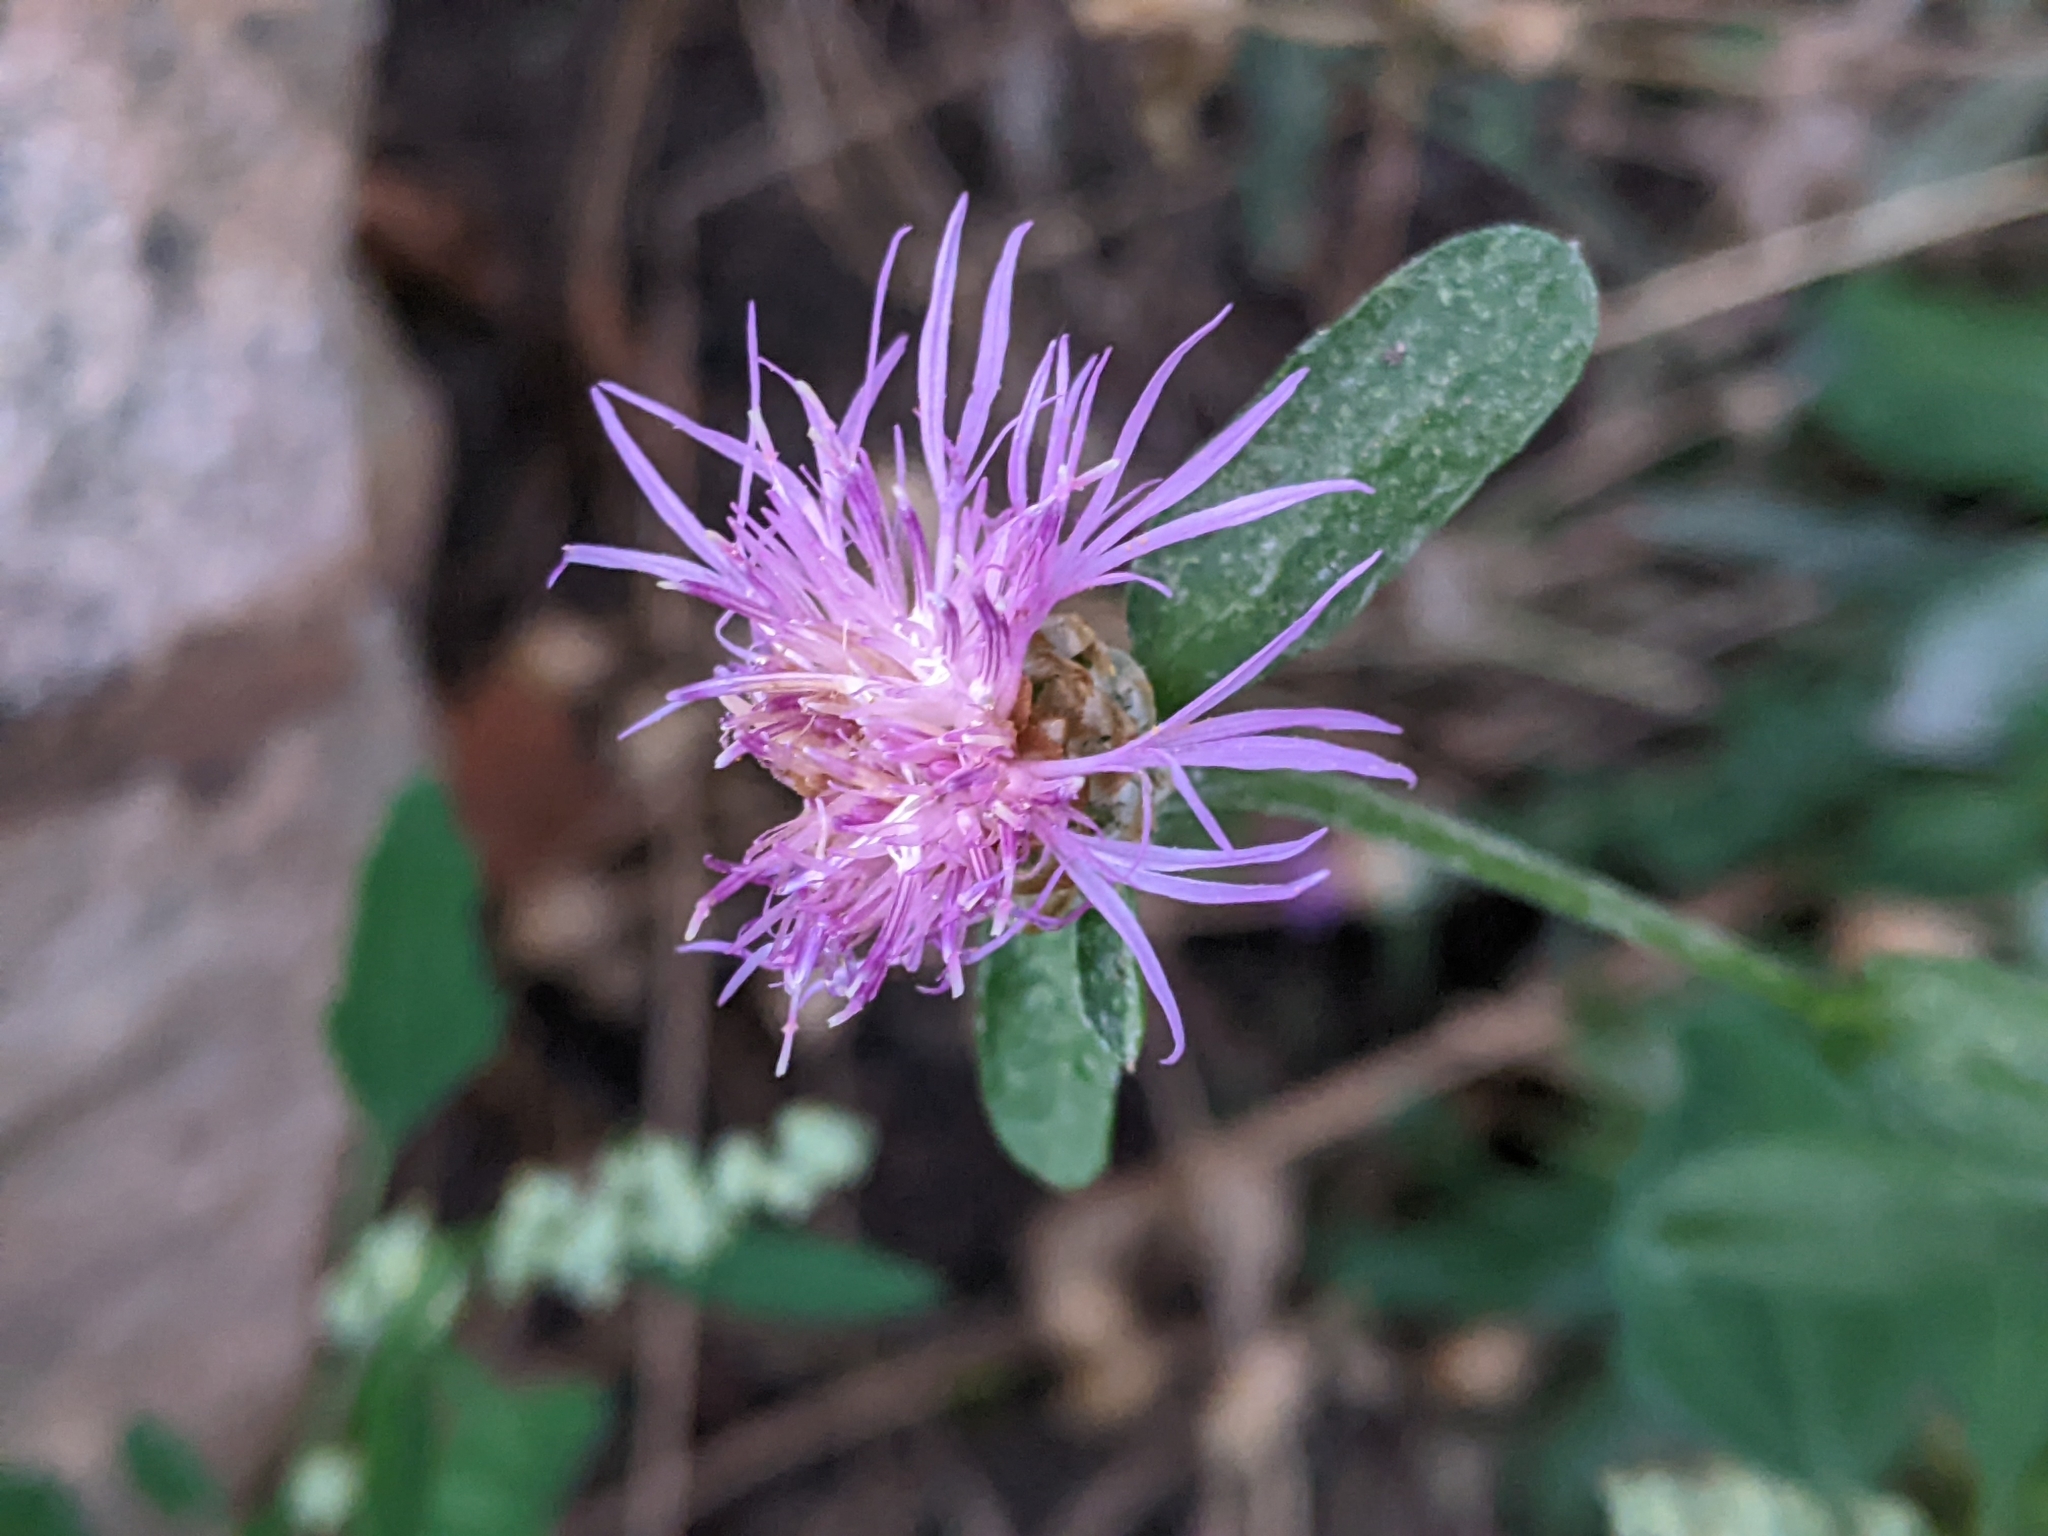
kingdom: Plantae
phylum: Tracheophyta
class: Magnoliopsida
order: Asterales
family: Asteraceae
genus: Centaurea
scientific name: Centaurea jacea
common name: Brown knapweed
